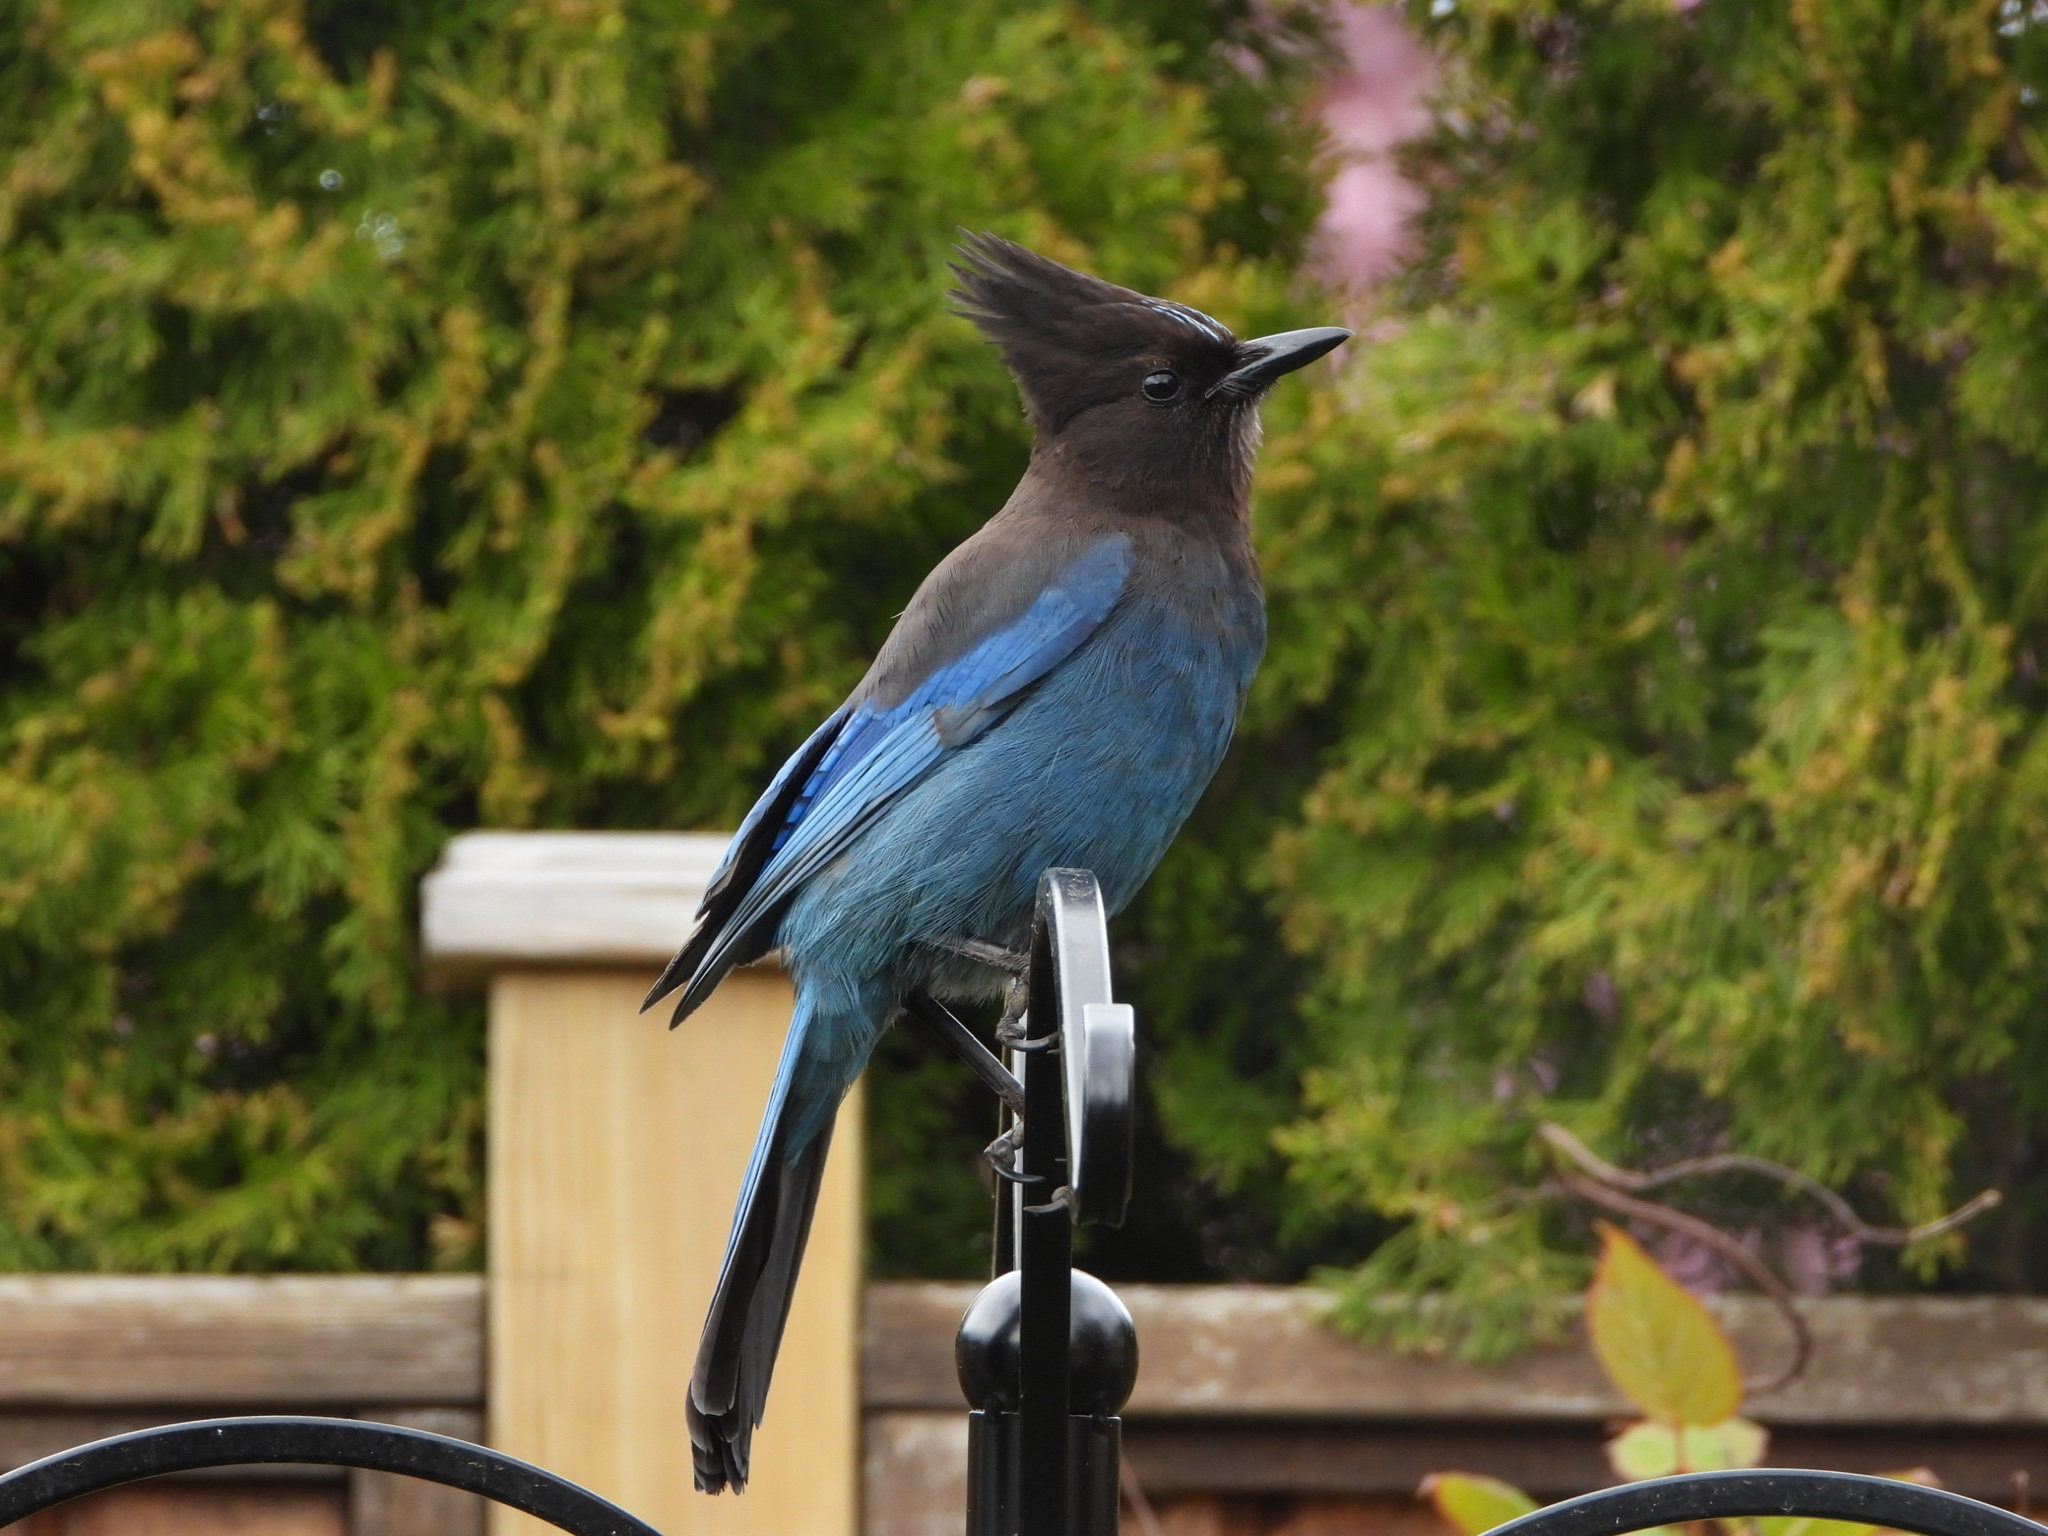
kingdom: Animalia
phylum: Chordata
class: Aves
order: Passeriformes
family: Corvidae
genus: Cyanocitta
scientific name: Cyanocitta stelleri
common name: Steller's jay
